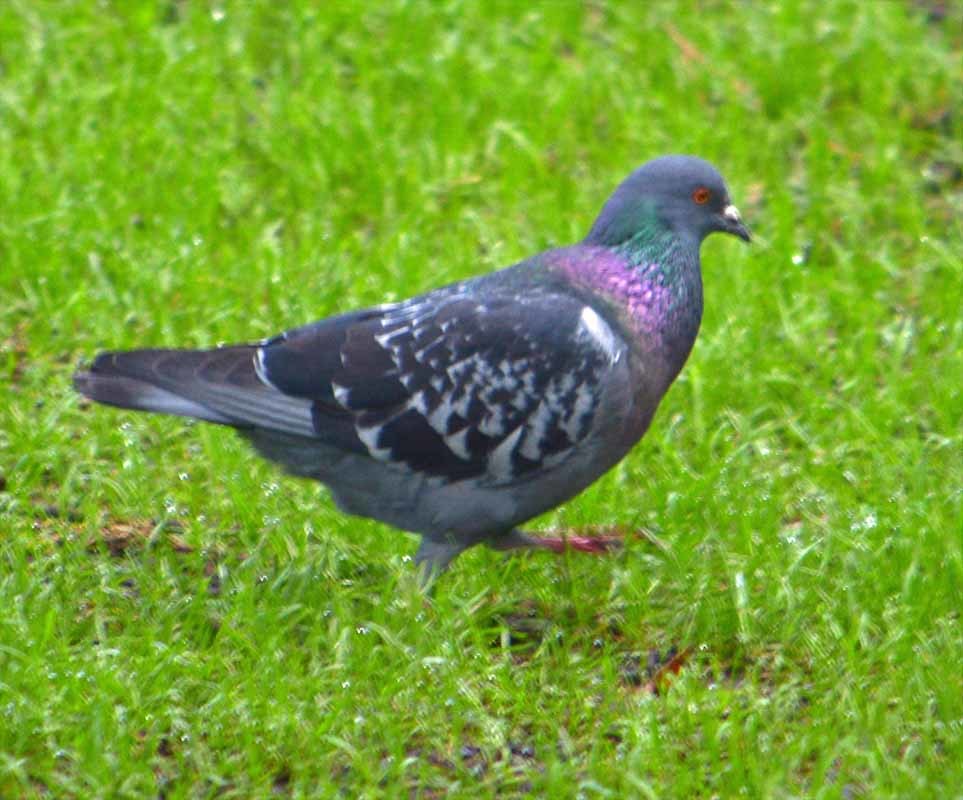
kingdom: Animalia
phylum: Chordata
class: Aves
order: Columbiformes
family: Columbidae
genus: Columba
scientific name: Columba livia
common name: Rock pigeon
